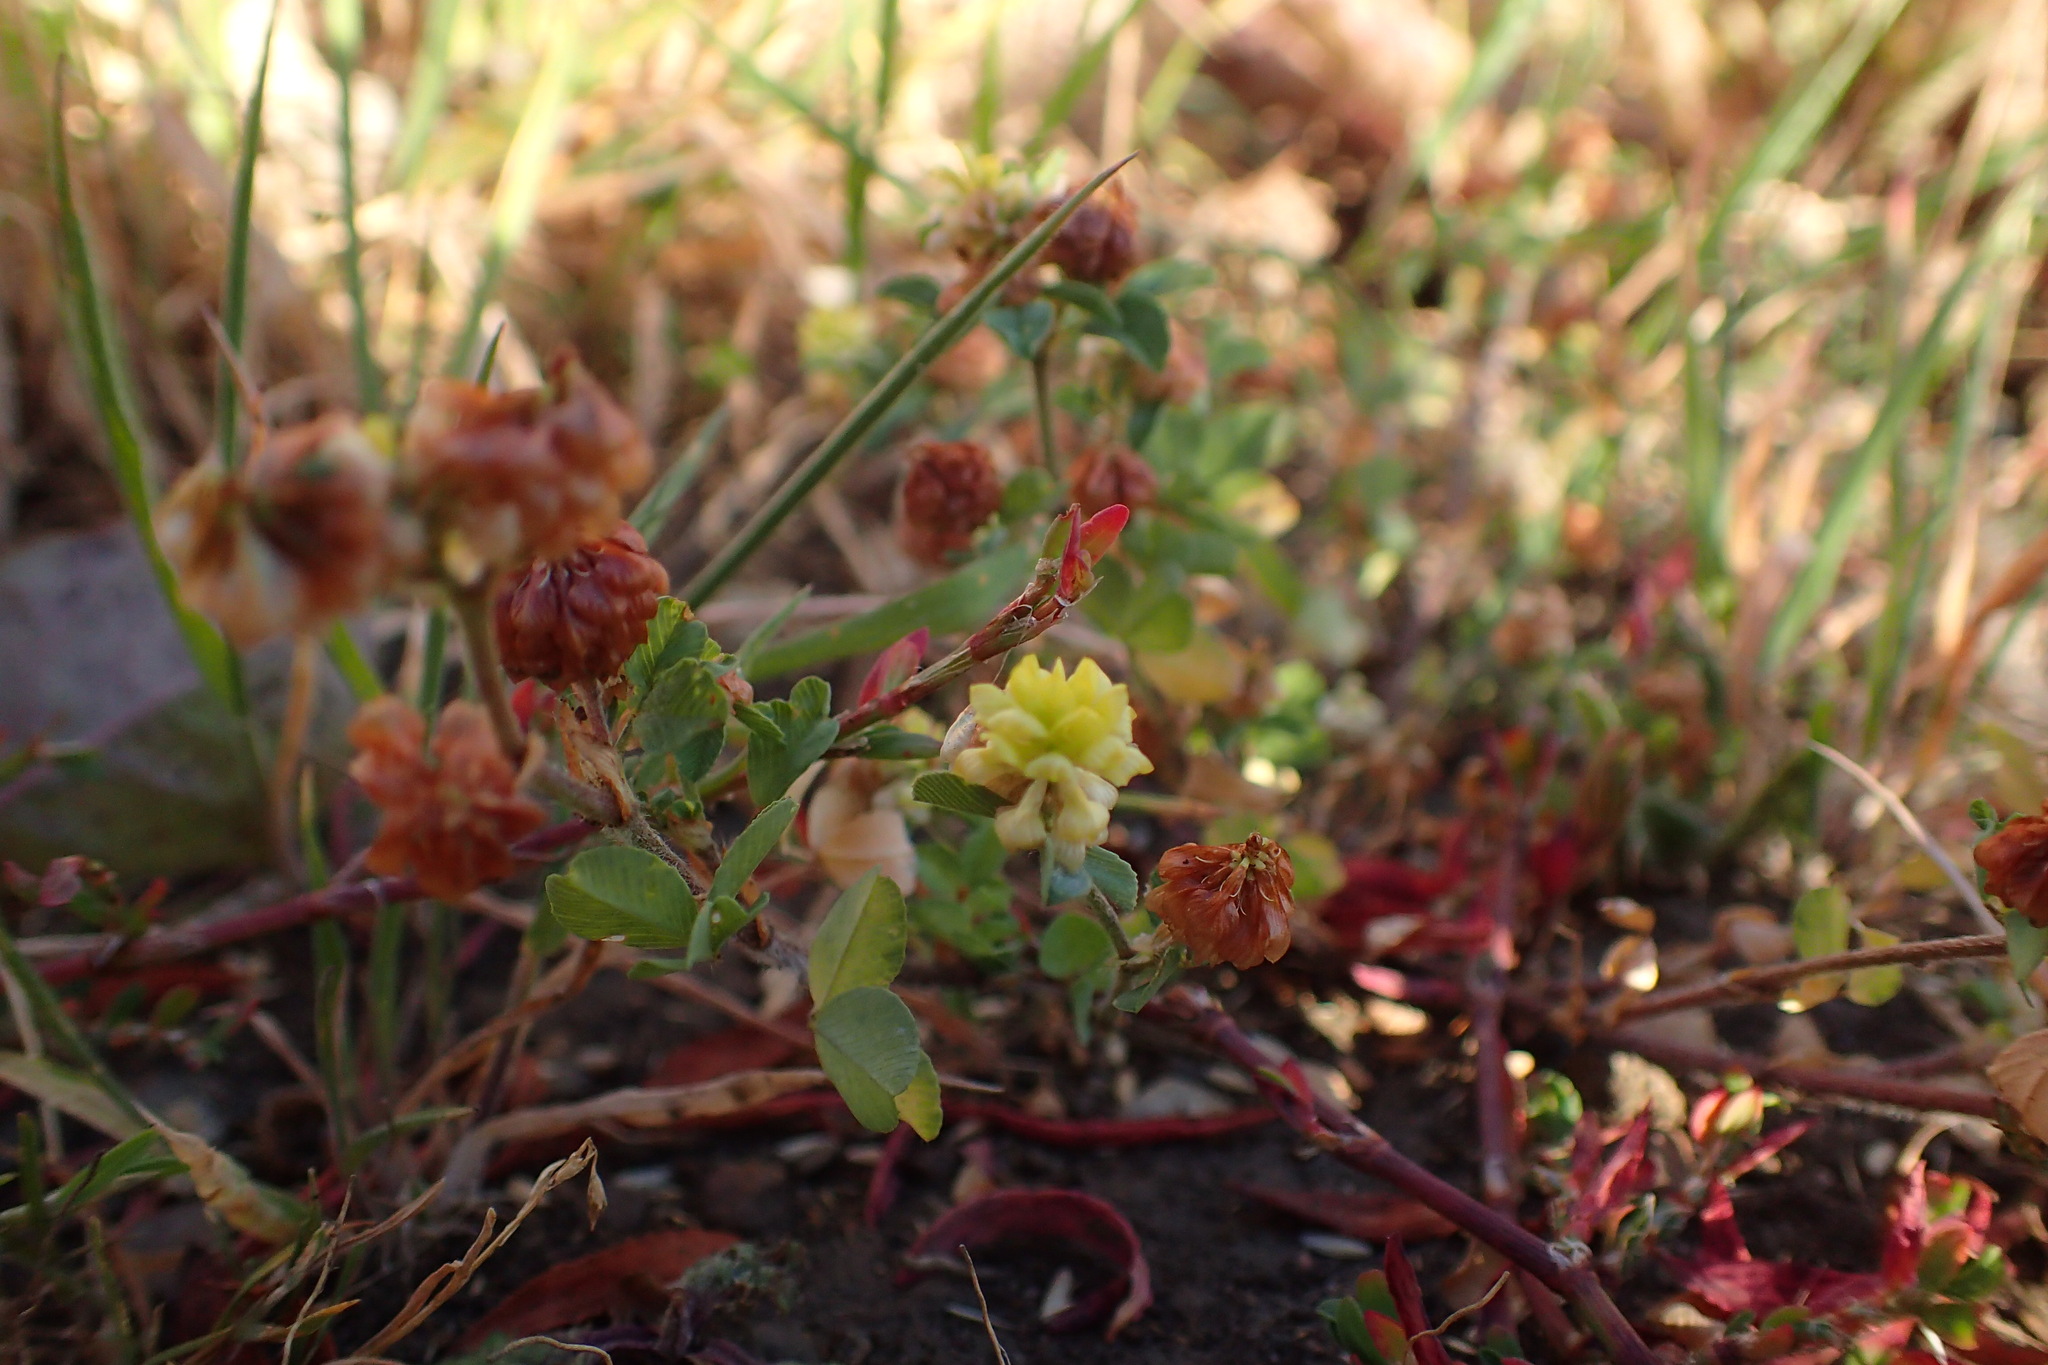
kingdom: Plantae
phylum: Tracheophyta
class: Magnoliopsida
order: Fabales
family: Fabaceae
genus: Trifolium
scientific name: Trifolium campestre
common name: Field clover
